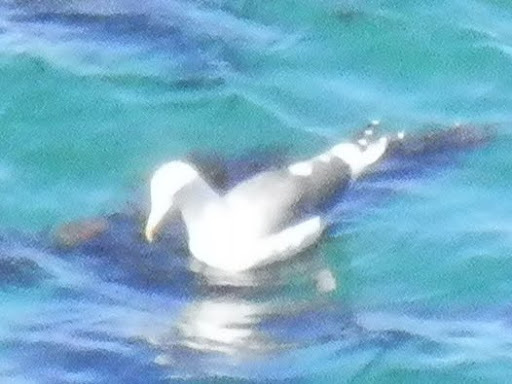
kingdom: Animalia
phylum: Chordata
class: Aves
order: Charadriiformes
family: Laridae
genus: Larus
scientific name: Larus occidentalis
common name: Western gull
